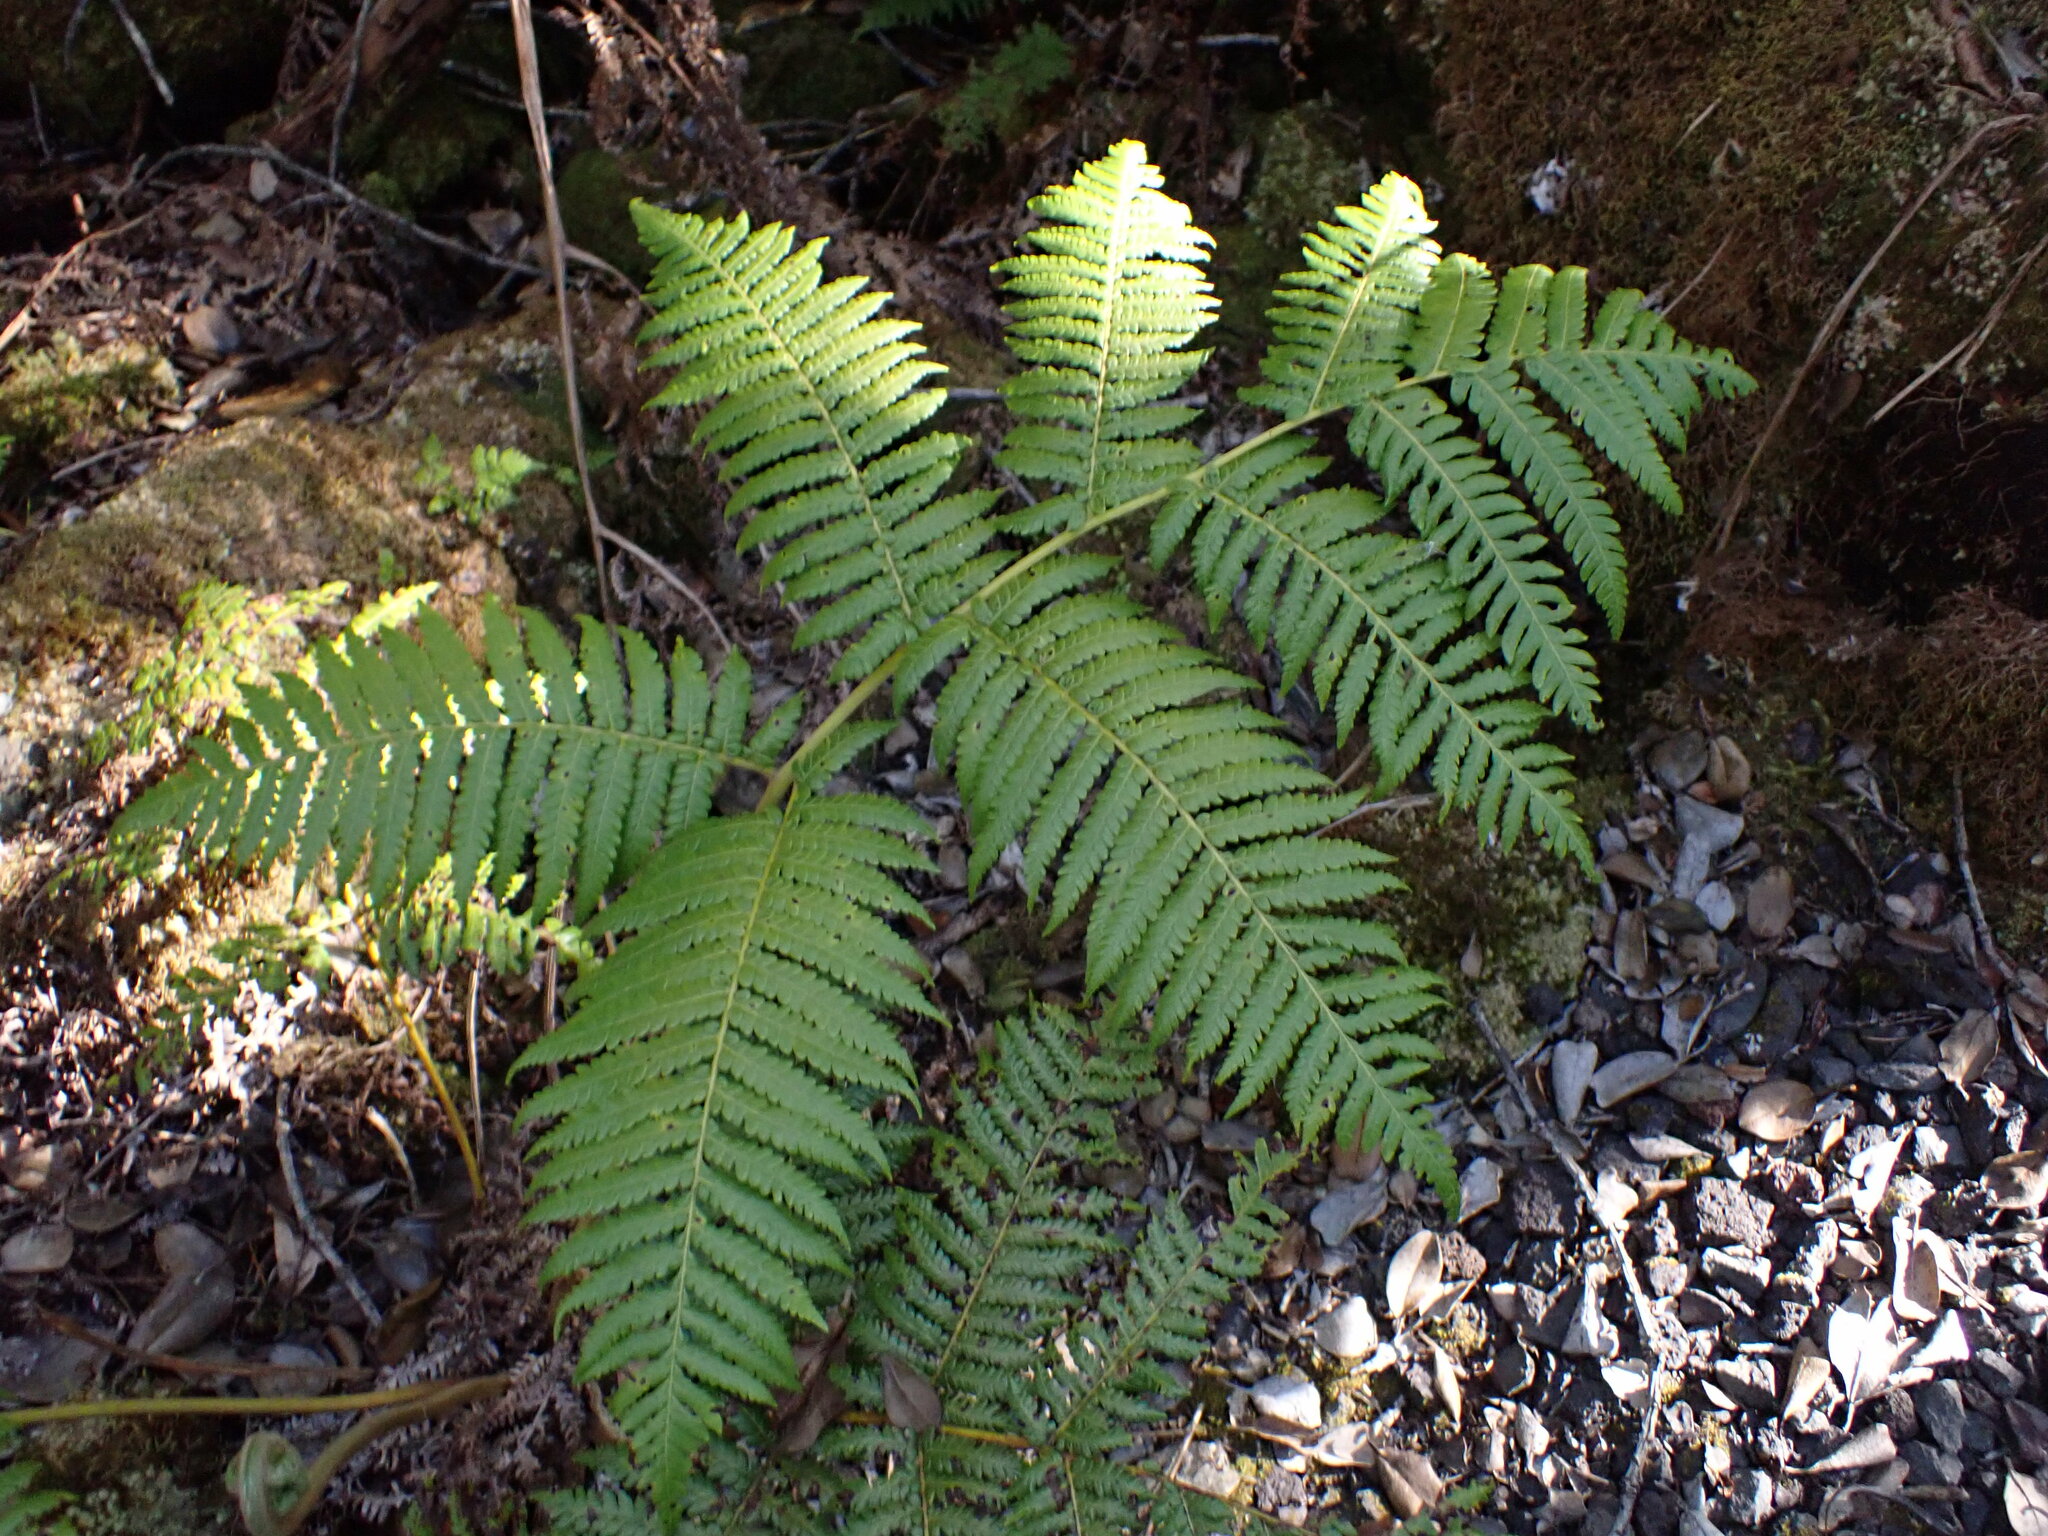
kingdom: Plantae
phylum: Tracheophyta
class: Polypodiopsida
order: Cyatheales
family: Cibotiaceae
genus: Cibotium
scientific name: Cibotium glaucum
